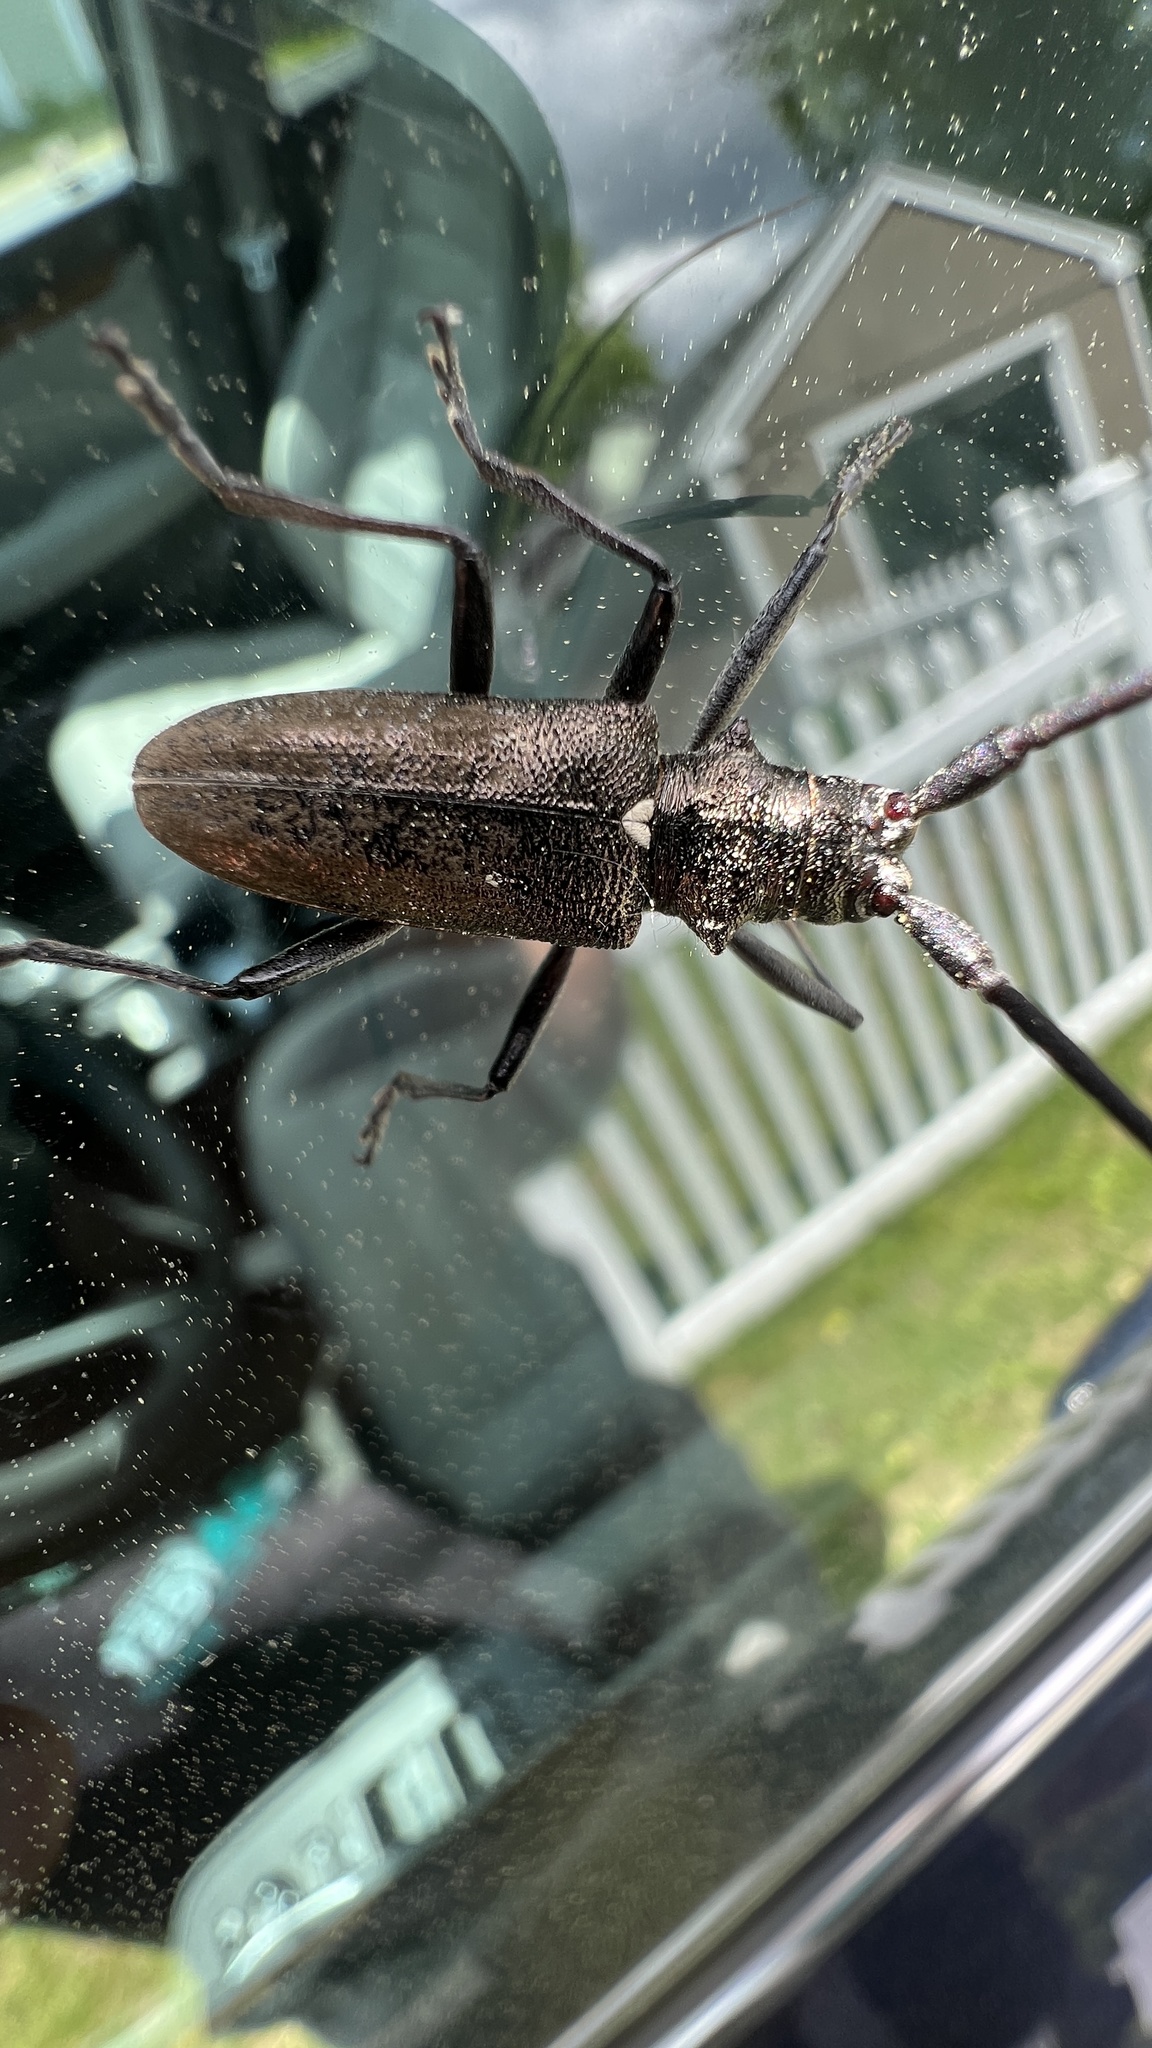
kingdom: Animalia
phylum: Arthropoda
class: Insecta
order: Coleoptera
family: Cerambycidae
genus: Monochamus
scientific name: Monochamus scutellatus
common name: White-spotted sawyer beetle
